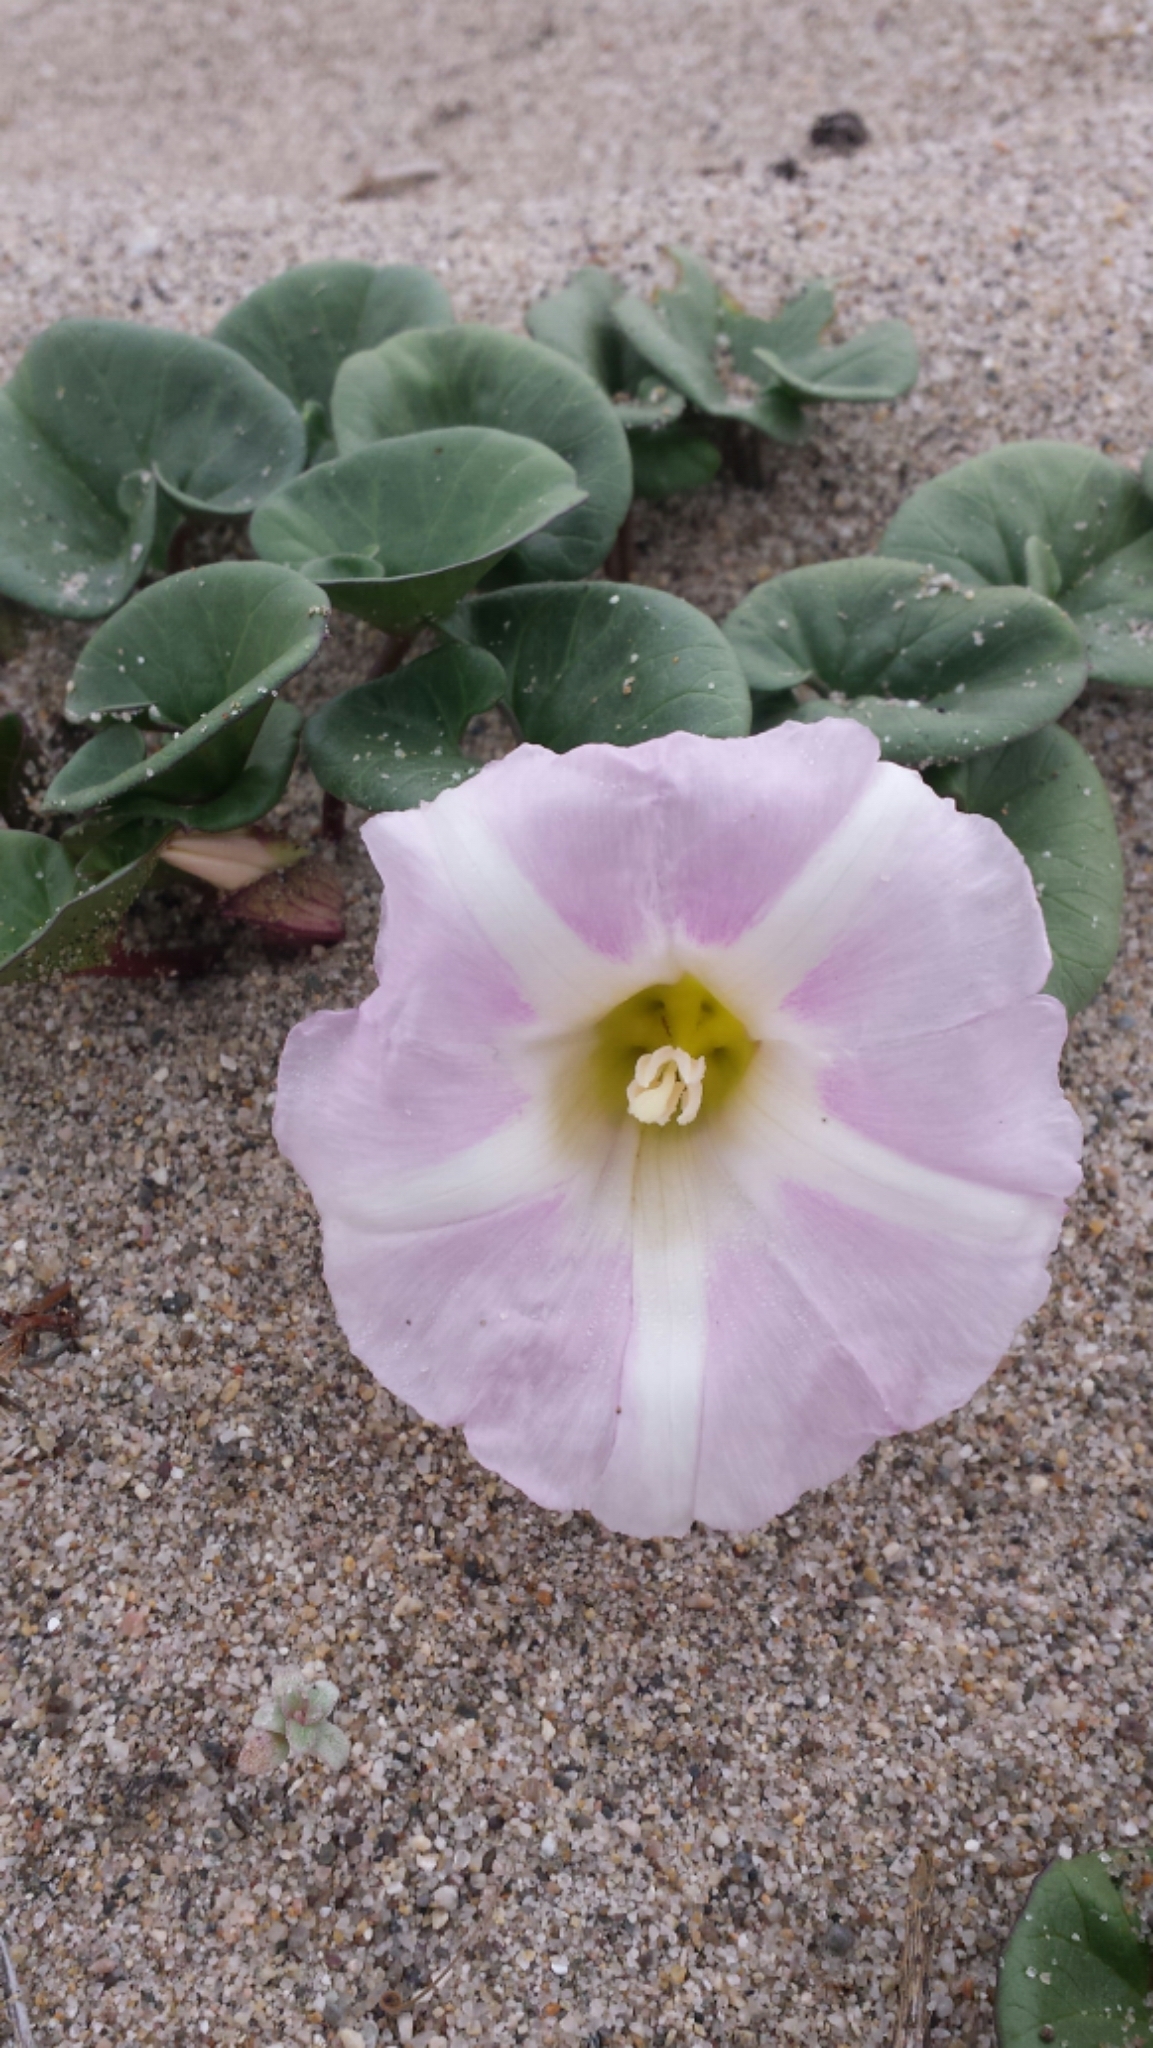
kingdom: Plantae
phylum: Tracheophyta
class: Magnoliopsida
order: Solanales
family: Convolvulaceae
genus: Calystegia
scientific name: Calystegia soldanella
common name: Sea bindweed
